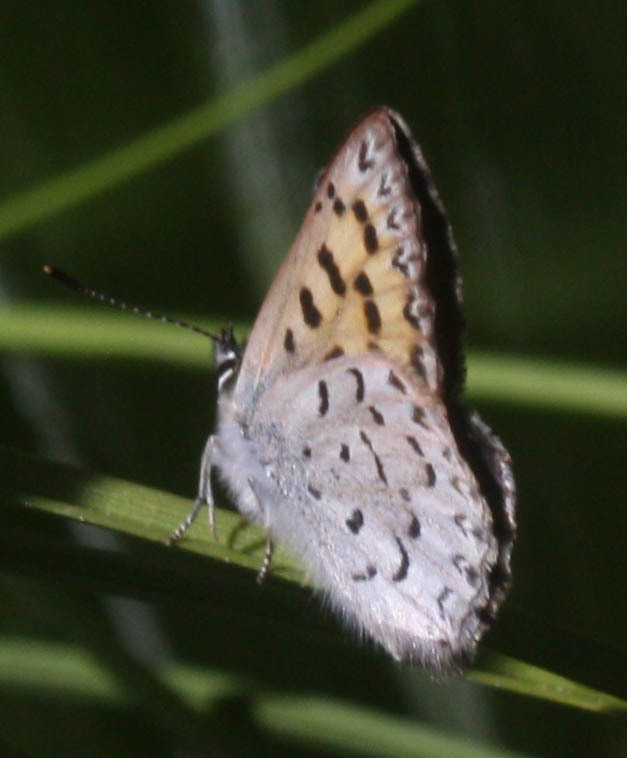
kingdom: Animalia
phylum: Arthropoda
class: Insecta
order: Lepidoptera
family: Lycaenidae
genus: Tharsalea
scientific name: Tharsalea mariposa
